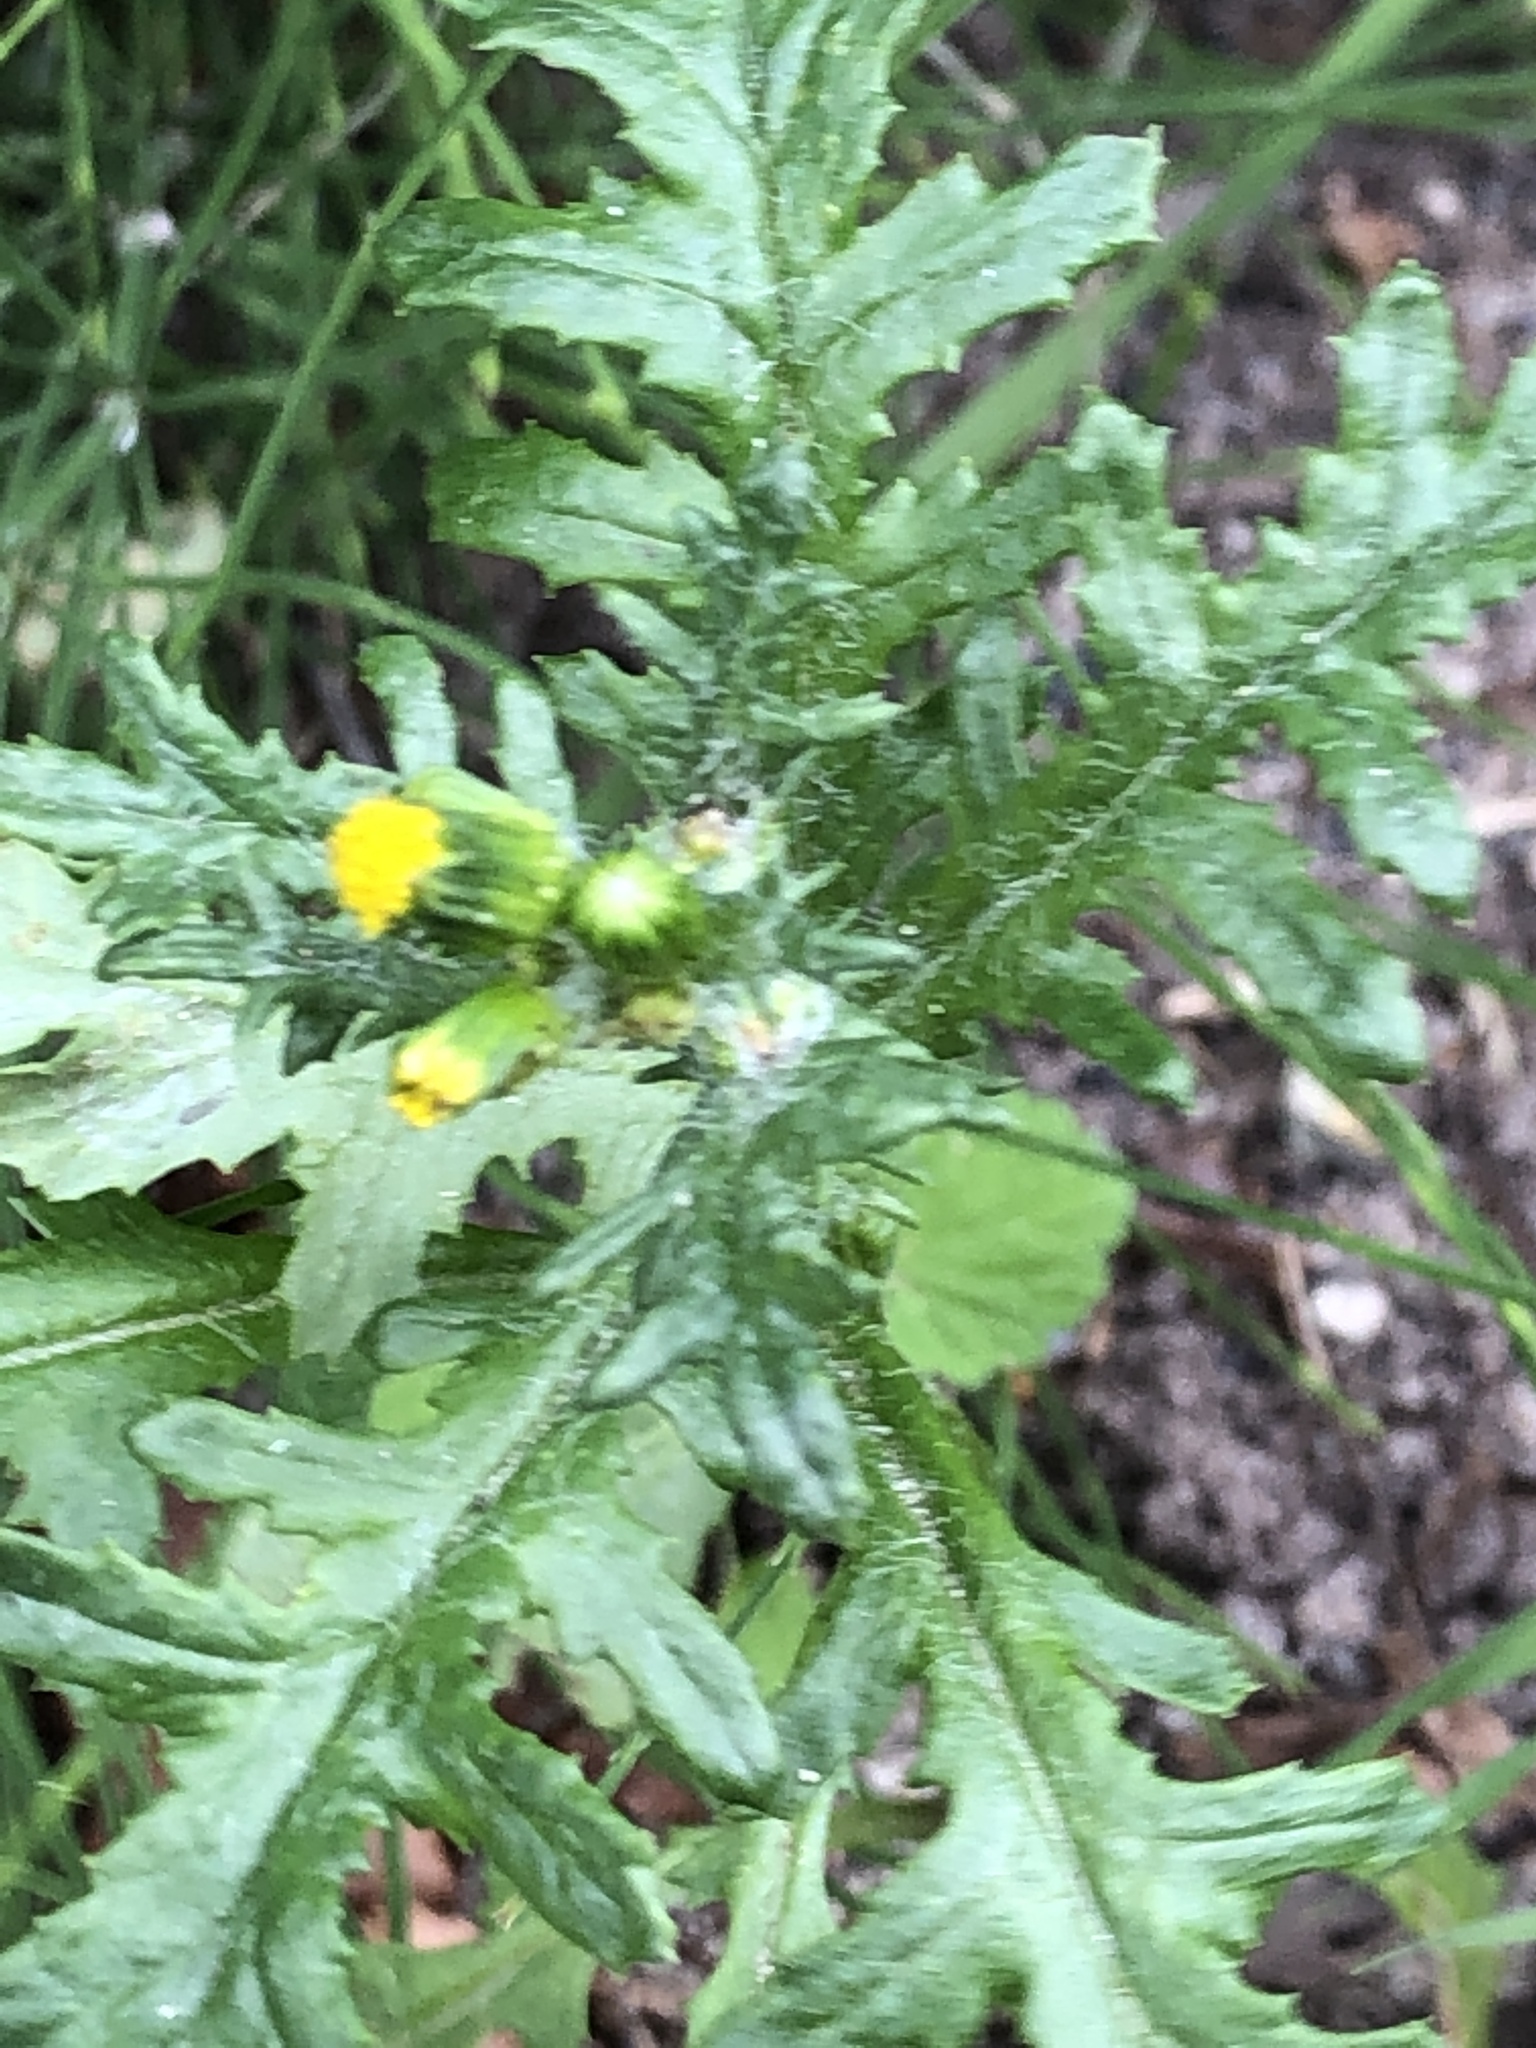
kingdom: Plantae
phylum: Tracheophyta
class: Magnoliopsida
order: Asterales
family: Asteraceae
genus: Senecio
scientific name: Senecio vulgaris
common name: Old-man-in-the-spring
